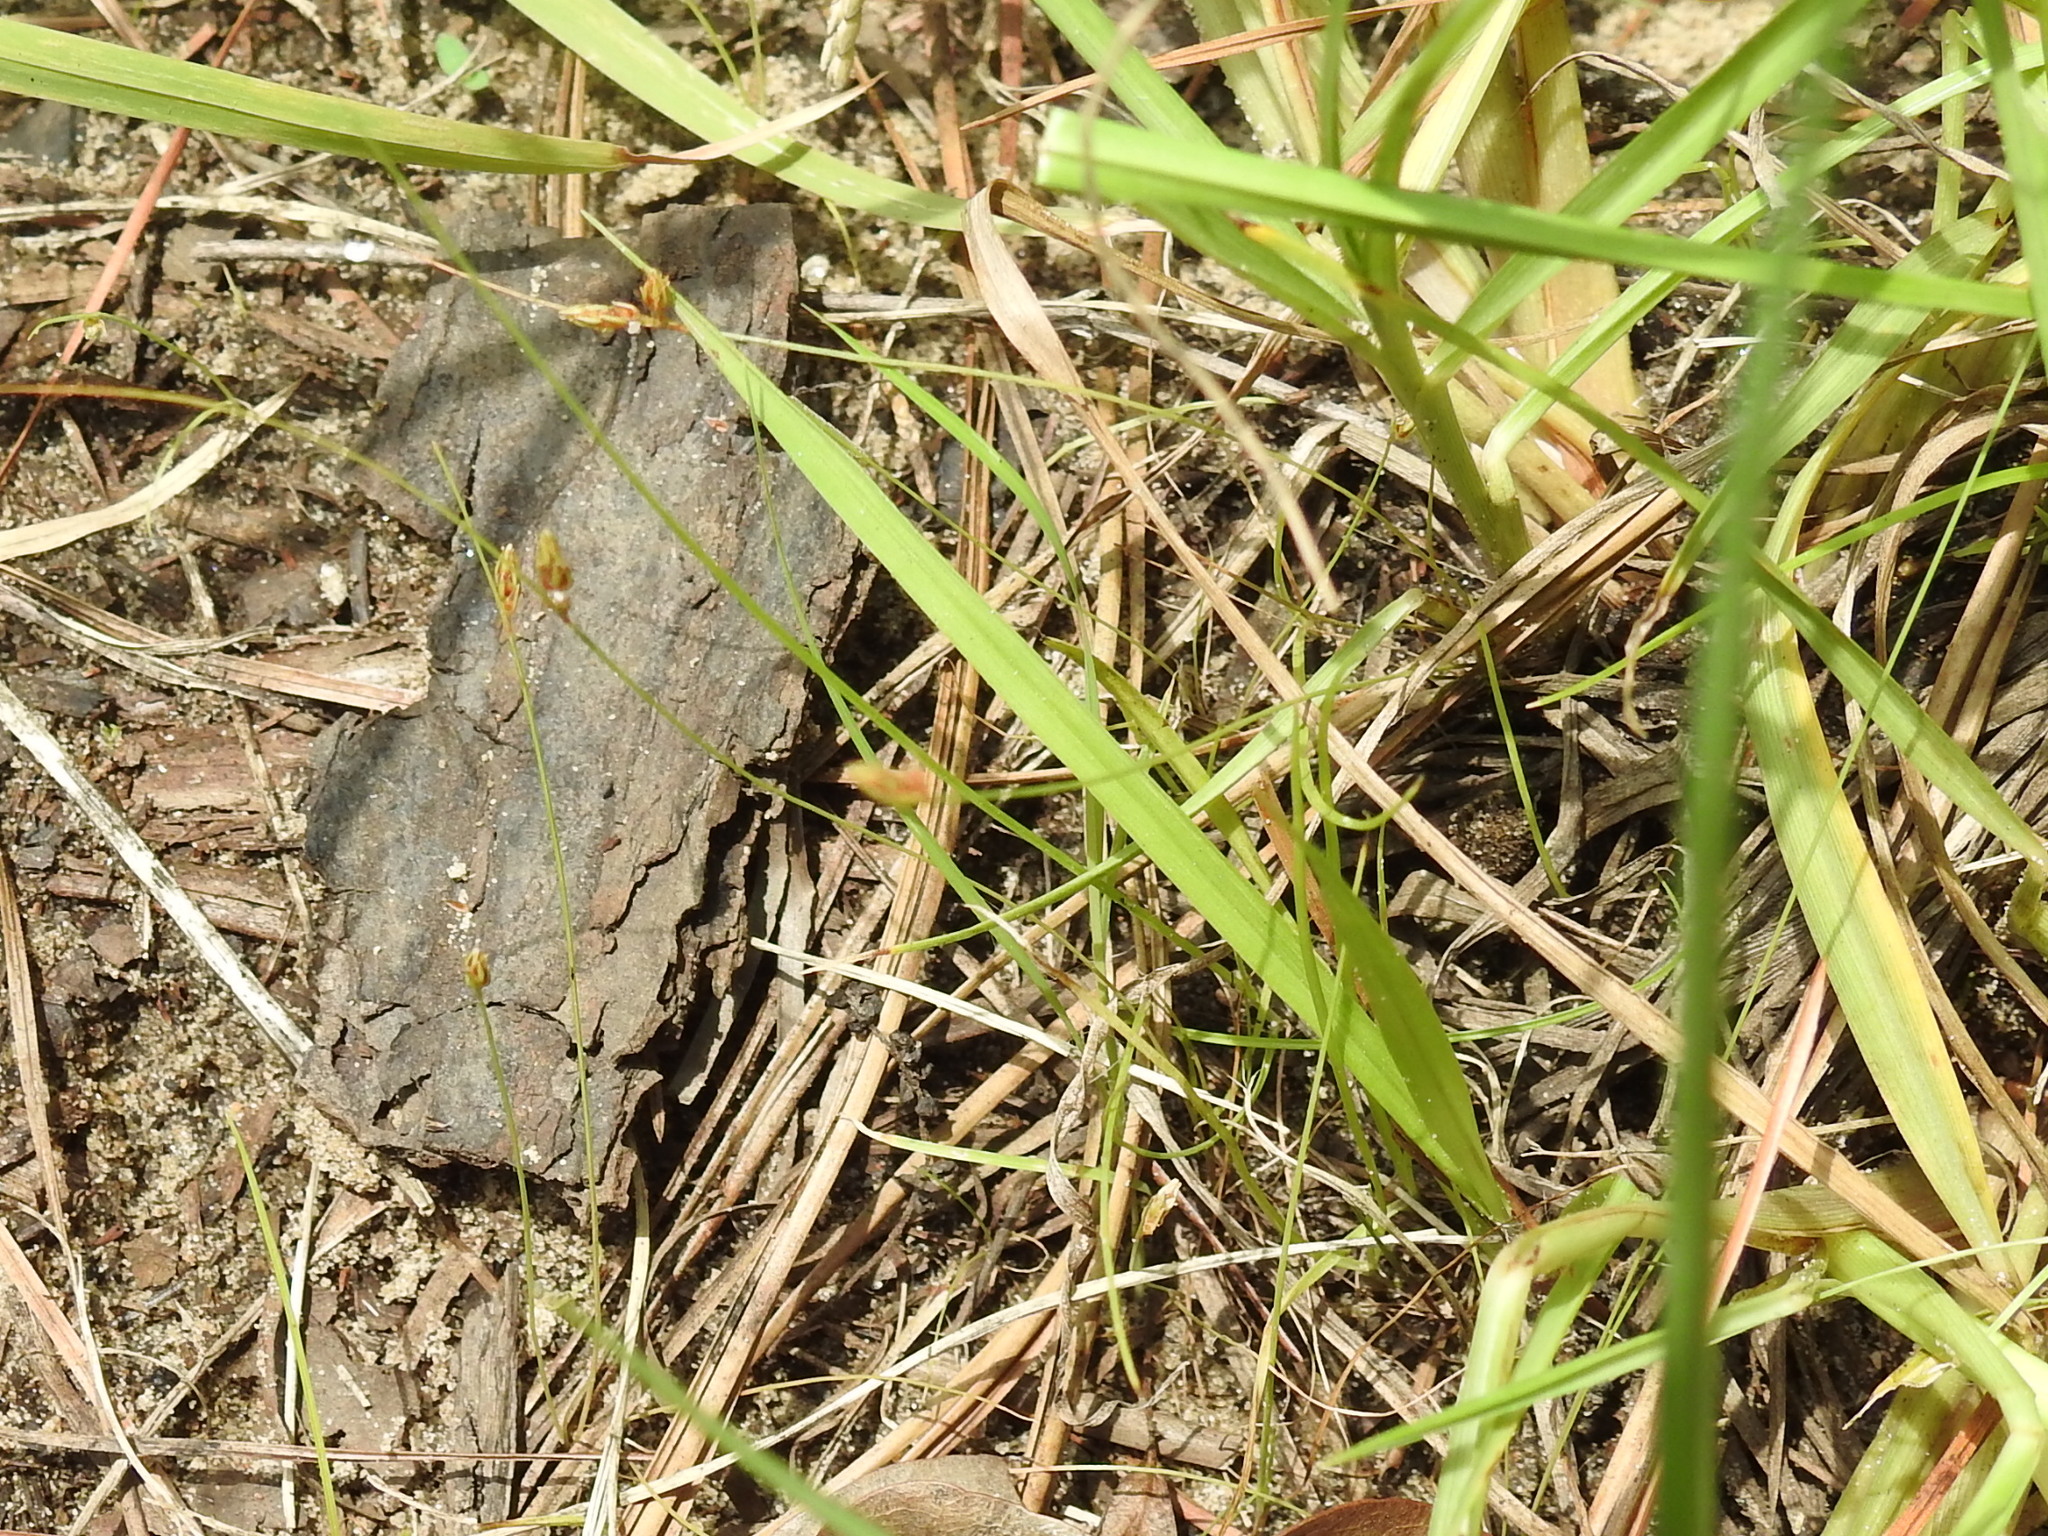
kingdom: Plantae
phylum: Tracheophyta
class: Liliopsida
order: Poales
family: Cyperaceae
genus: Cyperus
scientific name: Cyperus hemidrummondii
